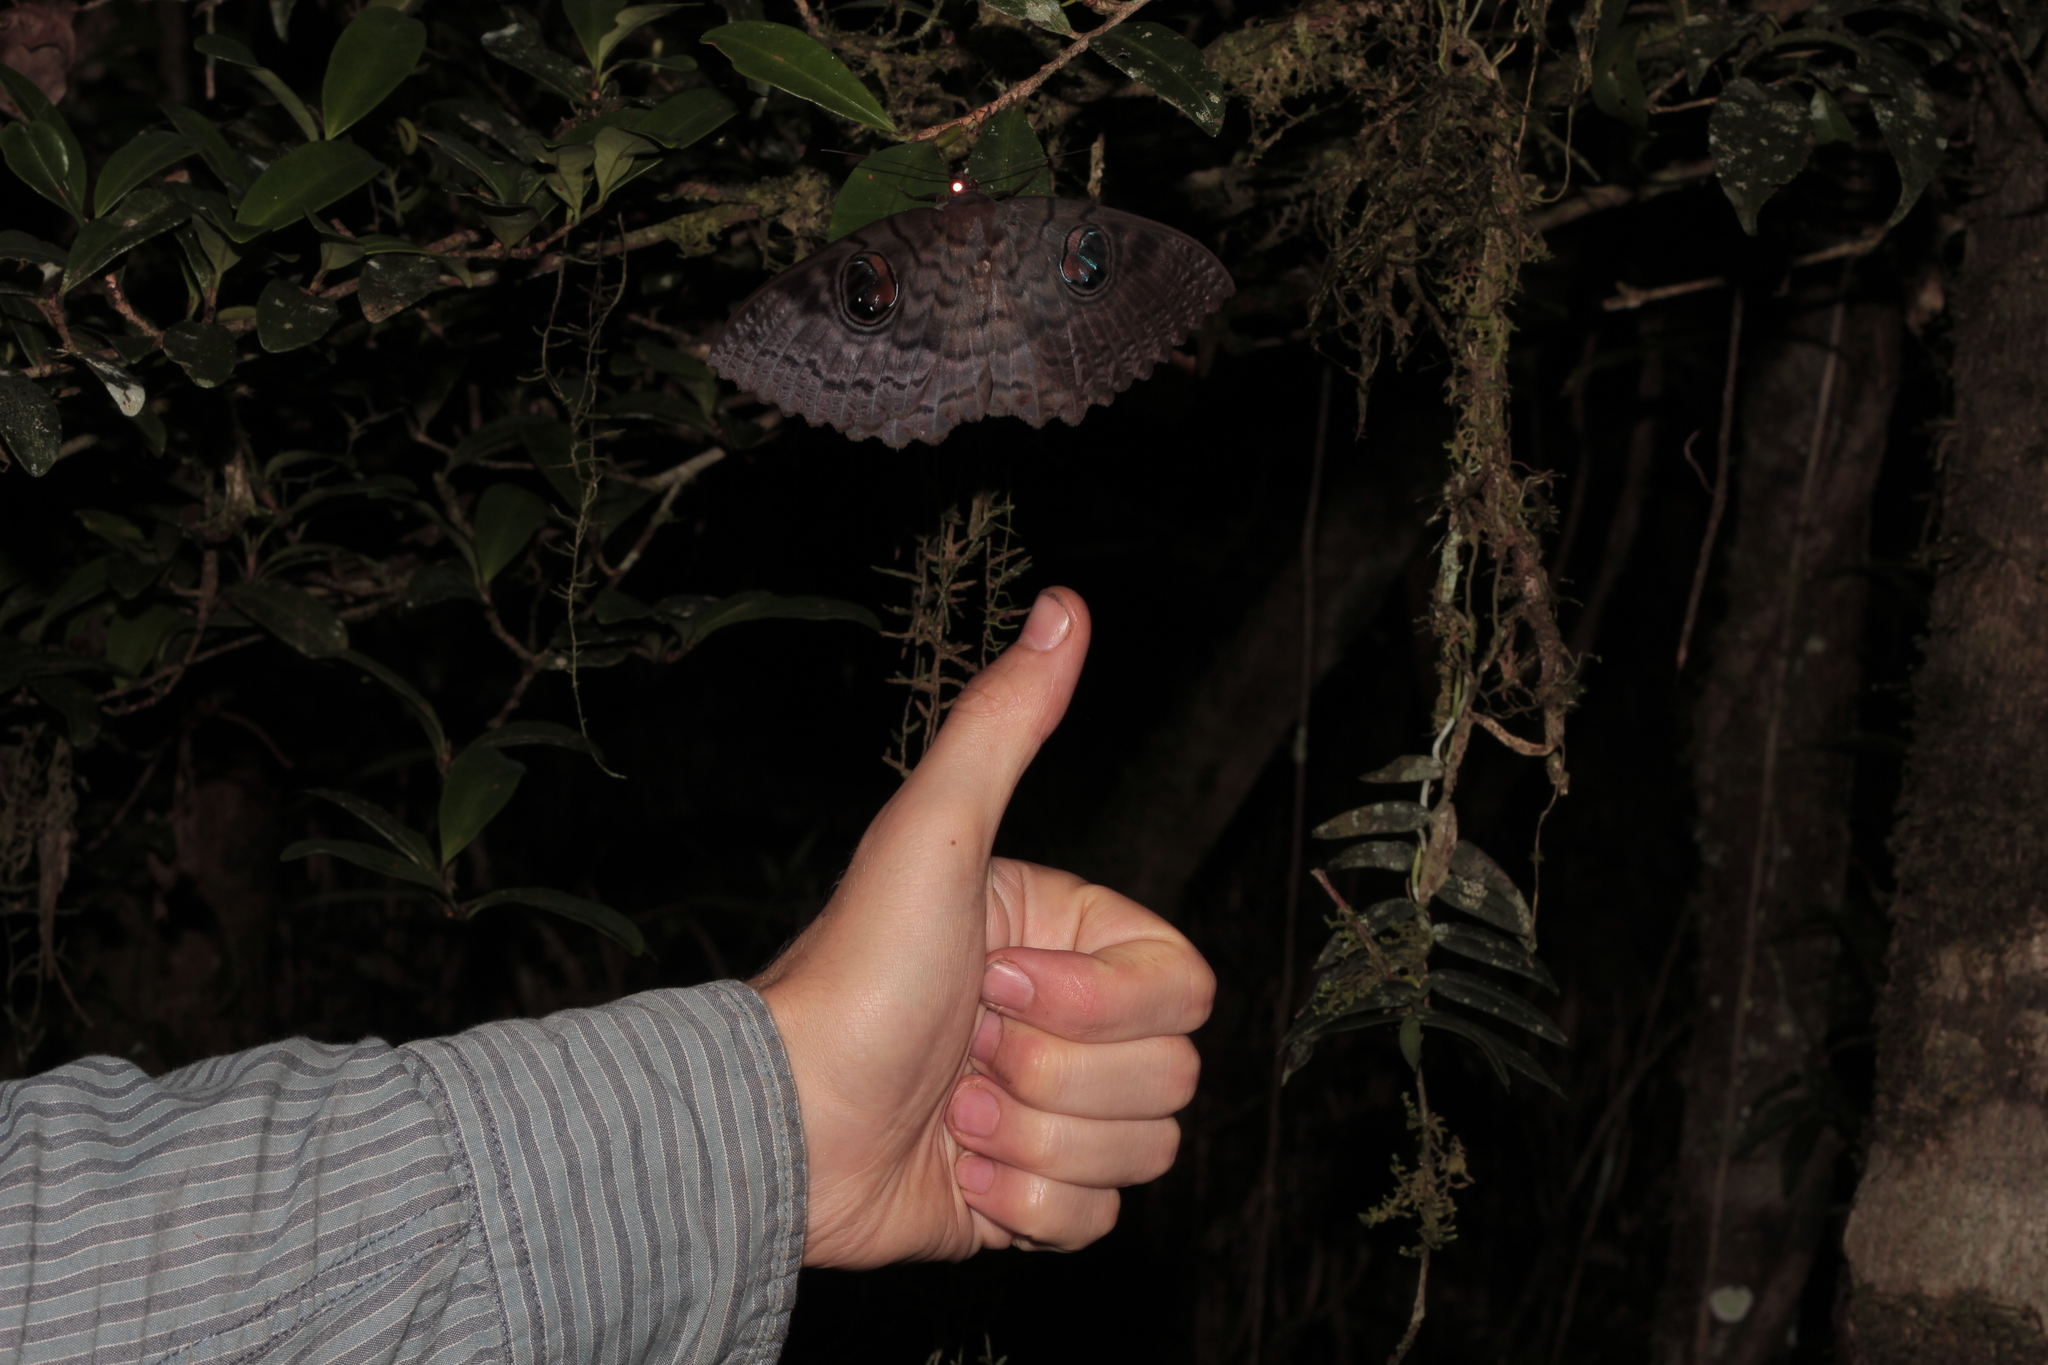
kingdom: Animalia
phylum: Arthropoda
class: Insecta
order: Lepidoptera
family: Erebidae
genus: Erebus
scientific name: Erebus walkeri
